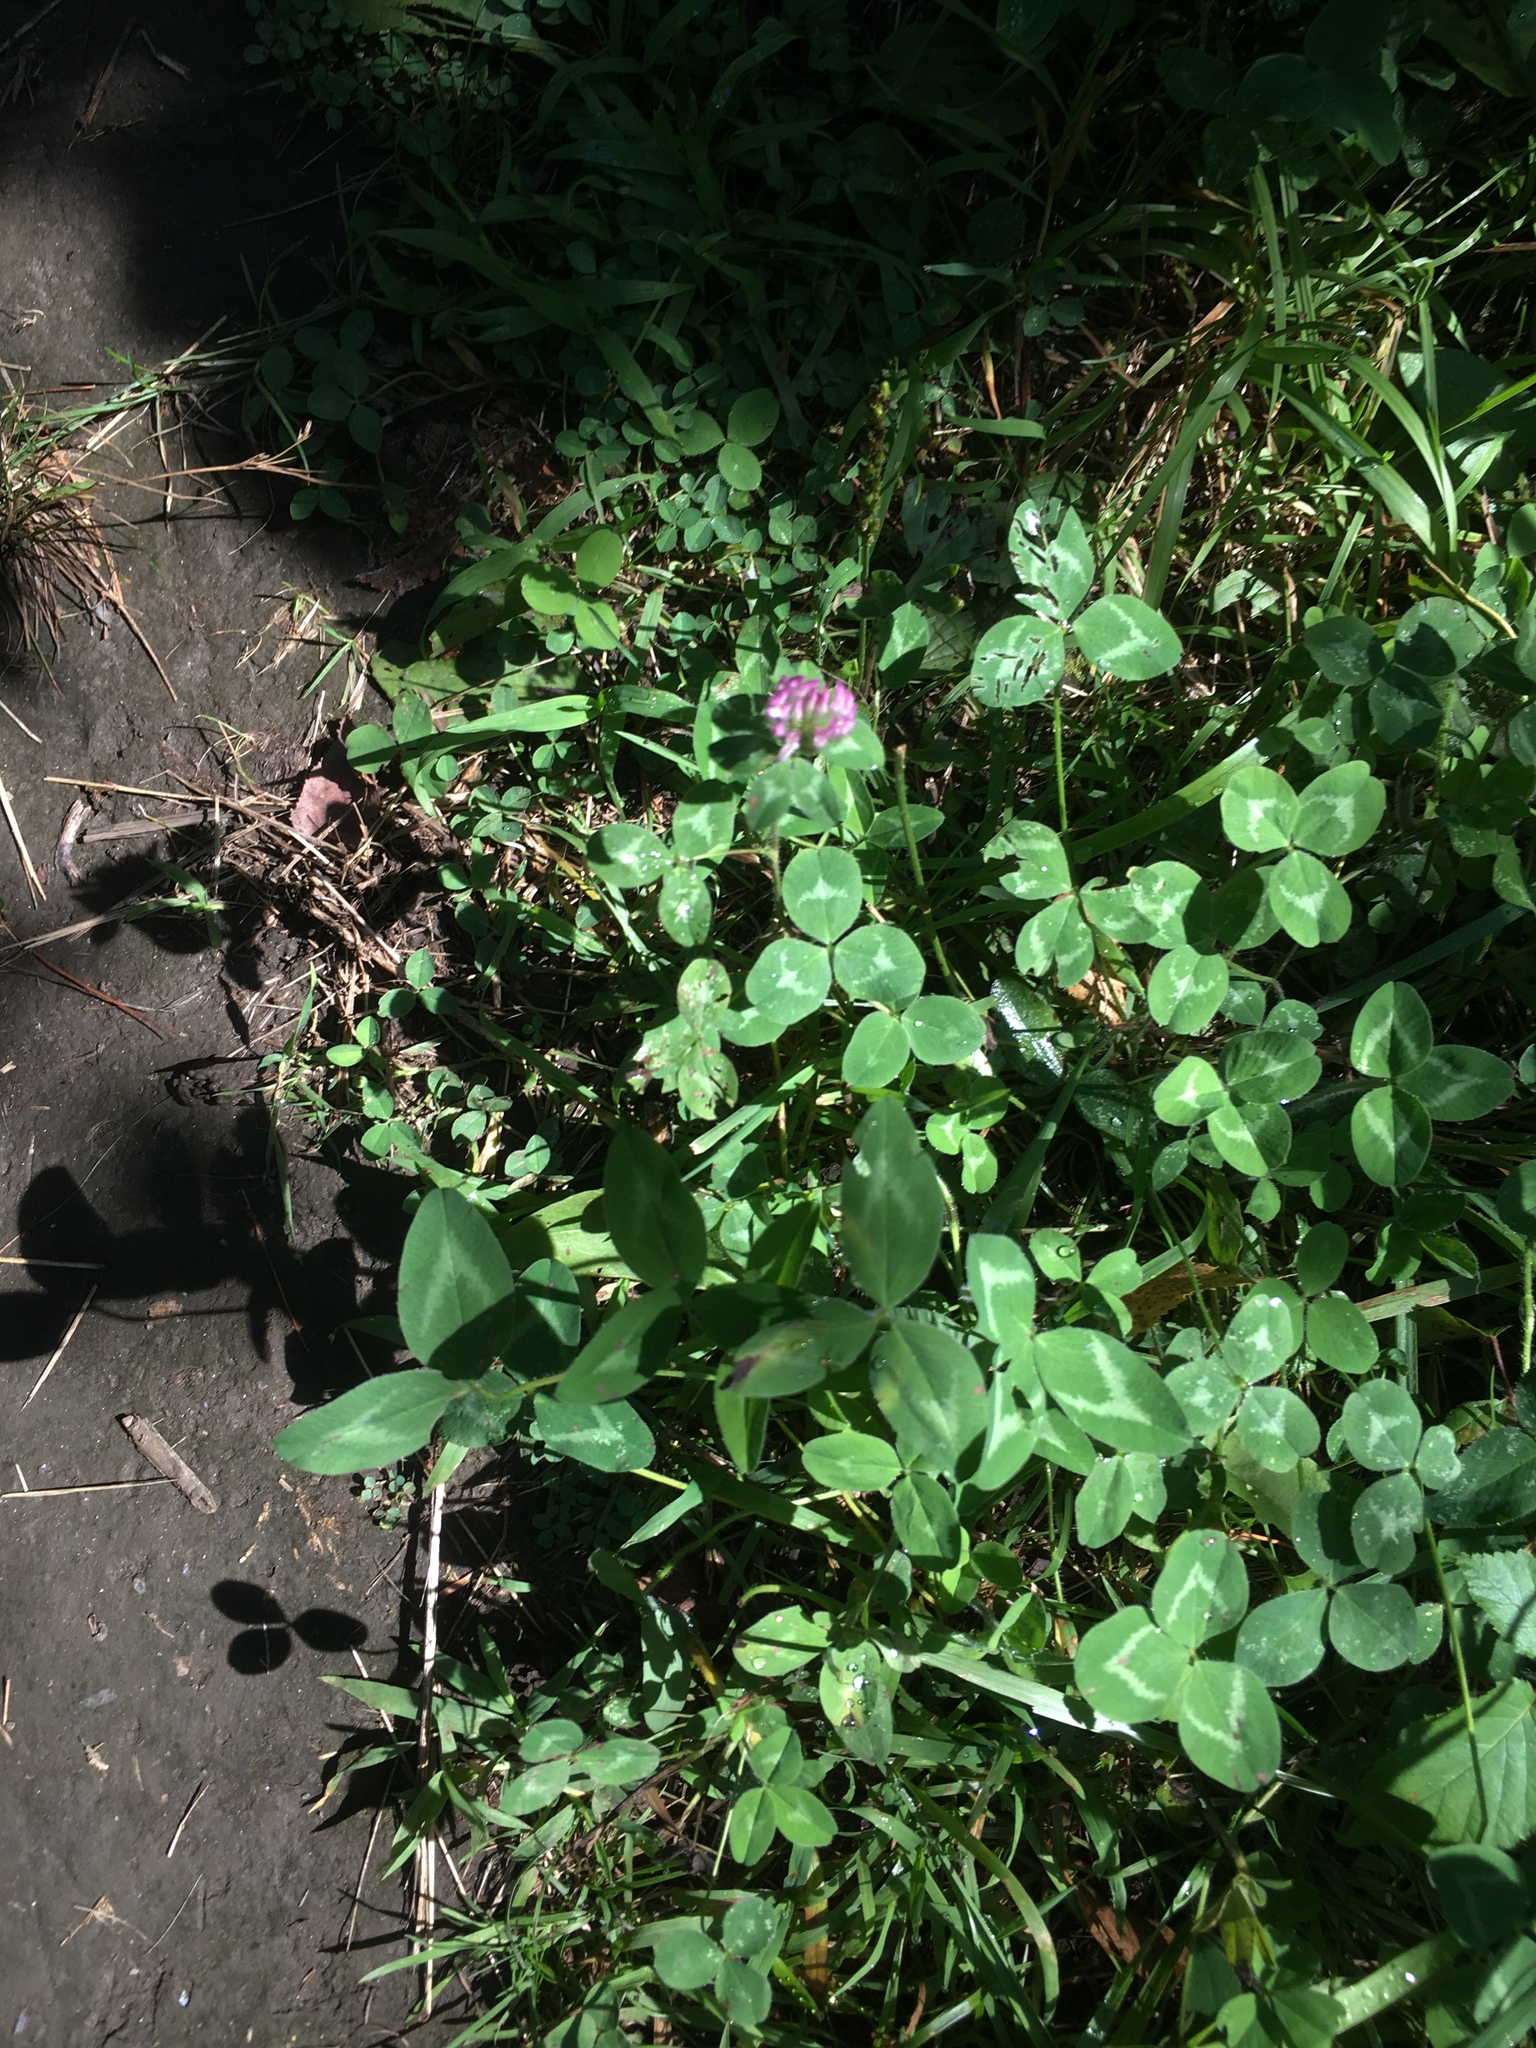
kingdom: Plantae
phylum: Tracheophyta
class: Magnoliopsida
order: Fabales
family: Fabaceae
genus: Trifolium
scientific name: Trifolium pratense
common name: Red clover
